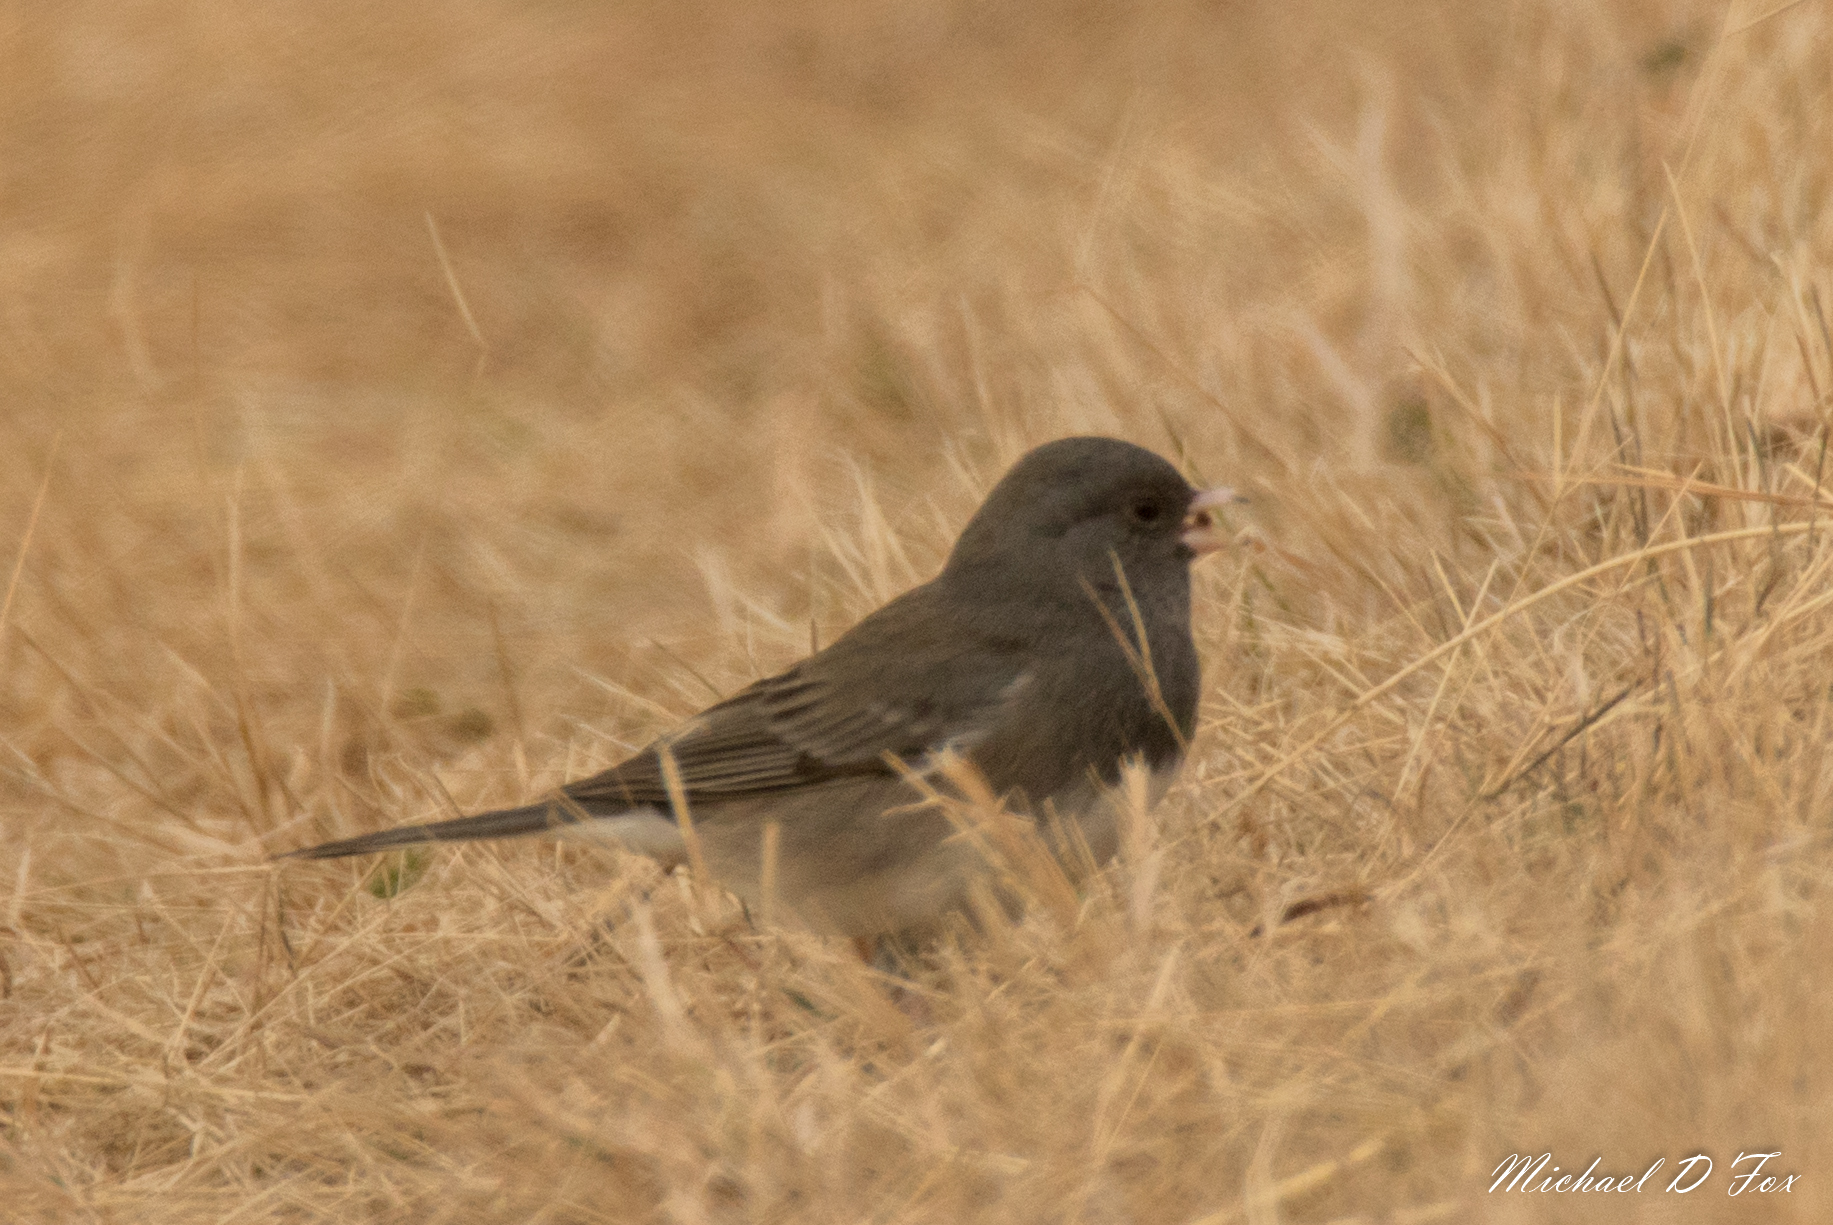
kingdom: Animalia
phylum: Chordata
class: Aves
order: Passeriformes
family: Passerellidae
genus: Junco
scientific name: Junco hyemalis
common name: Dark-eyed junco
